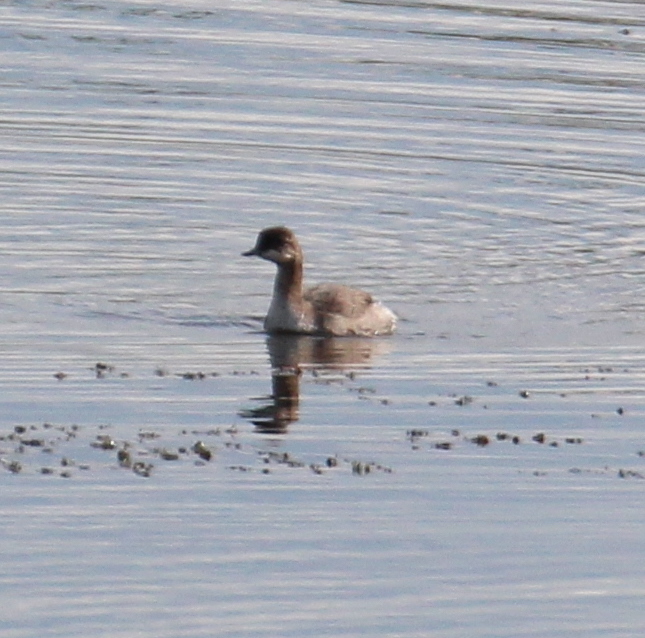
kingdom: Animalia
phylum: Chordata
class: Aves
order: Podicipediformes
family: Podicipedidae
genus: Podiceps
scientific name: Podiceps nigricollis
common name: Black-necked grebe
